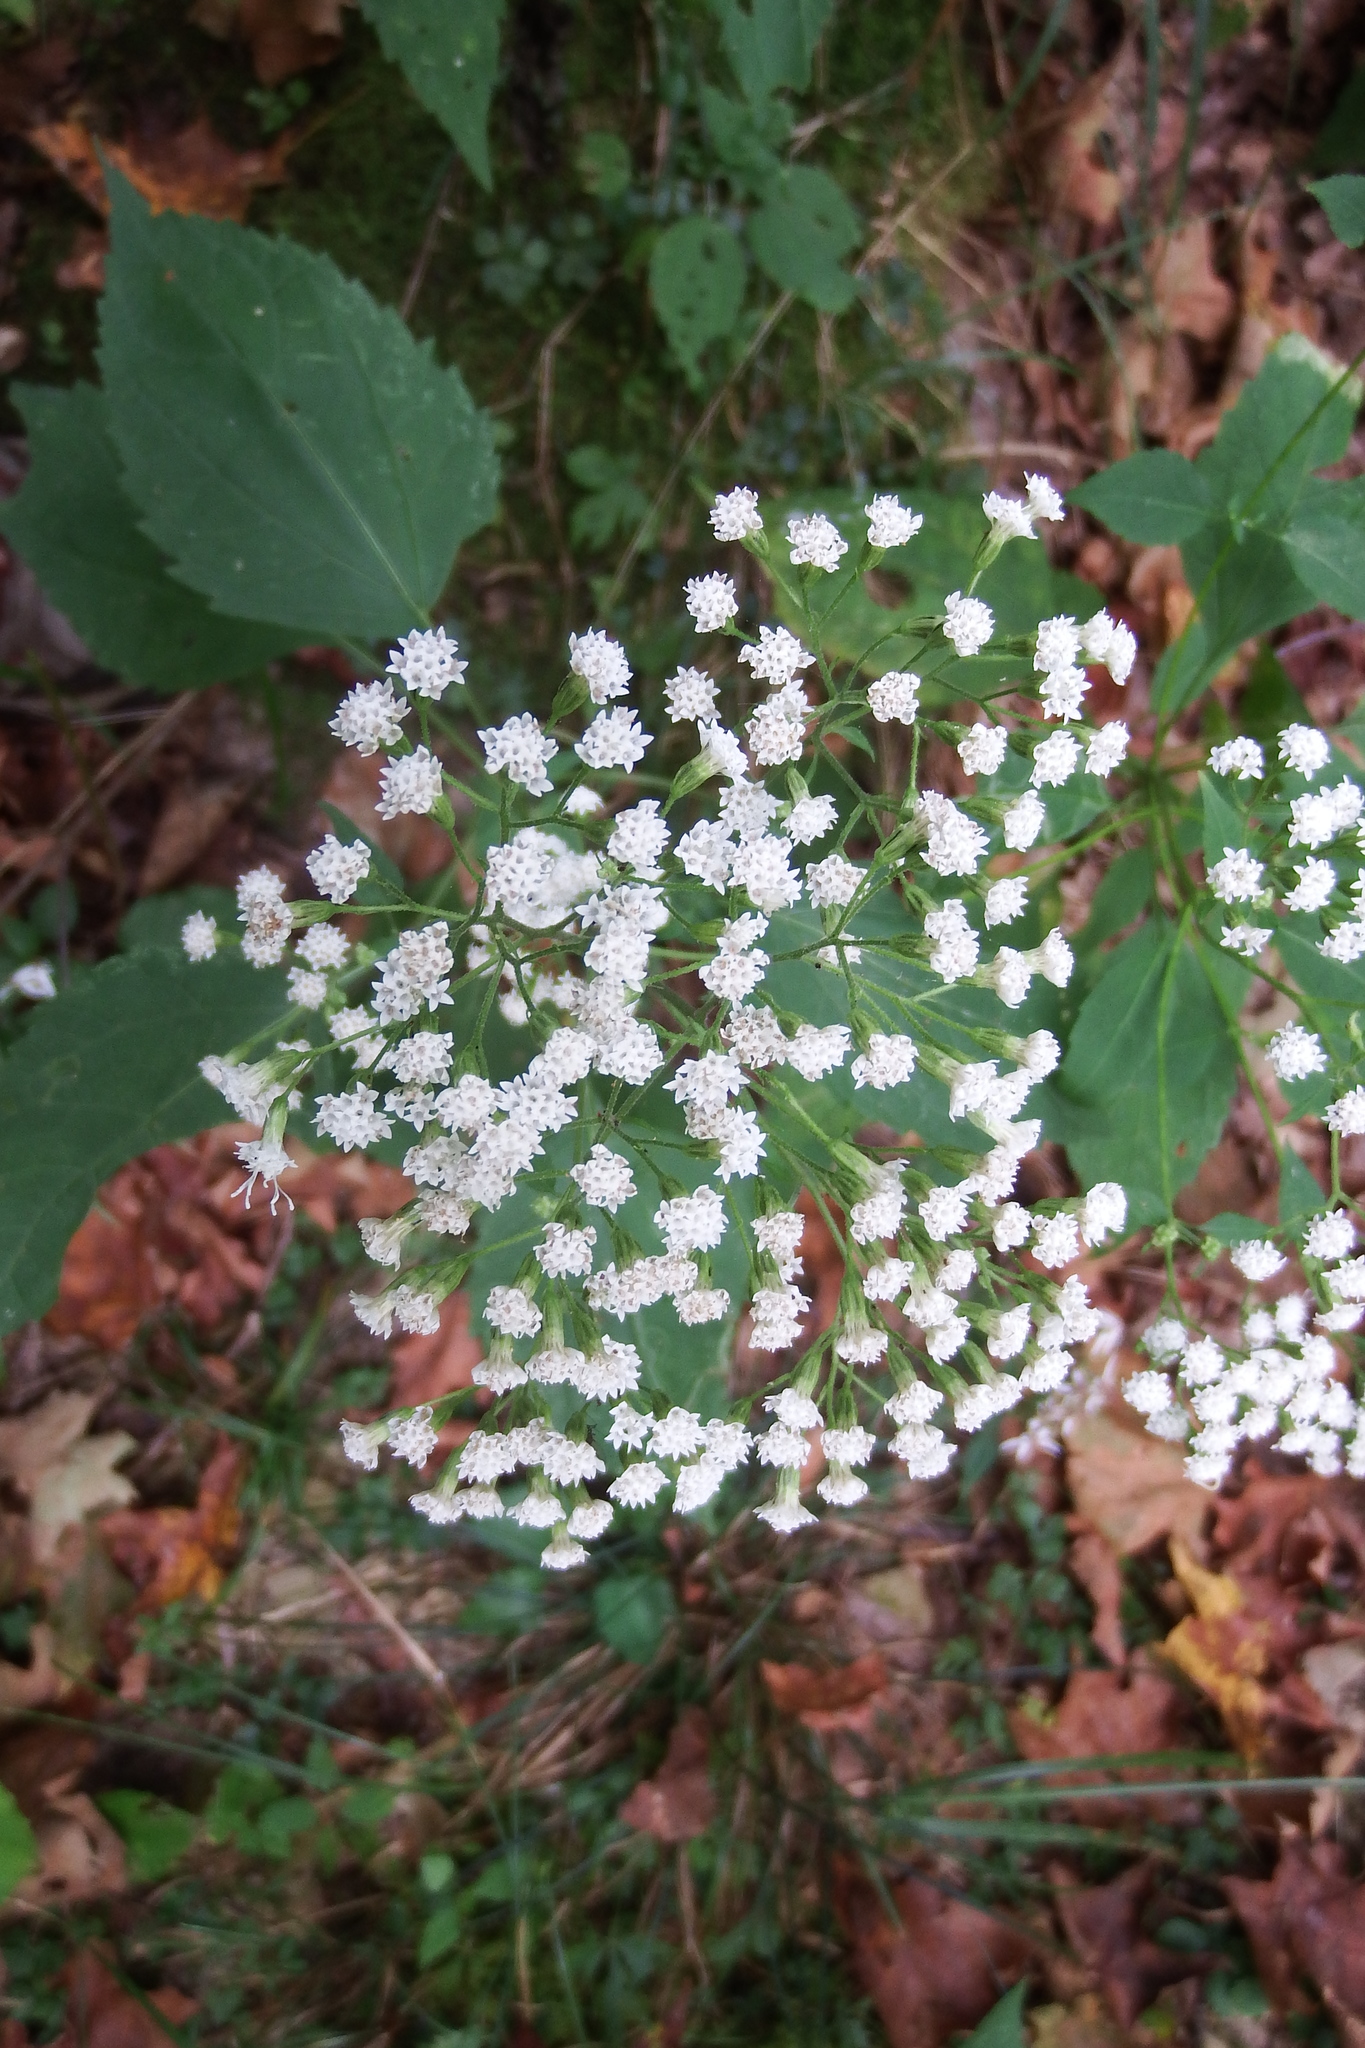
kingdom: Plantae
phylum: Tracheophyta
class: Magnoliopsida
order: Asterales
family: Asteraceae
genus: Ageratina
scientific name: Ageratina altissima
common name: White snakeroot
